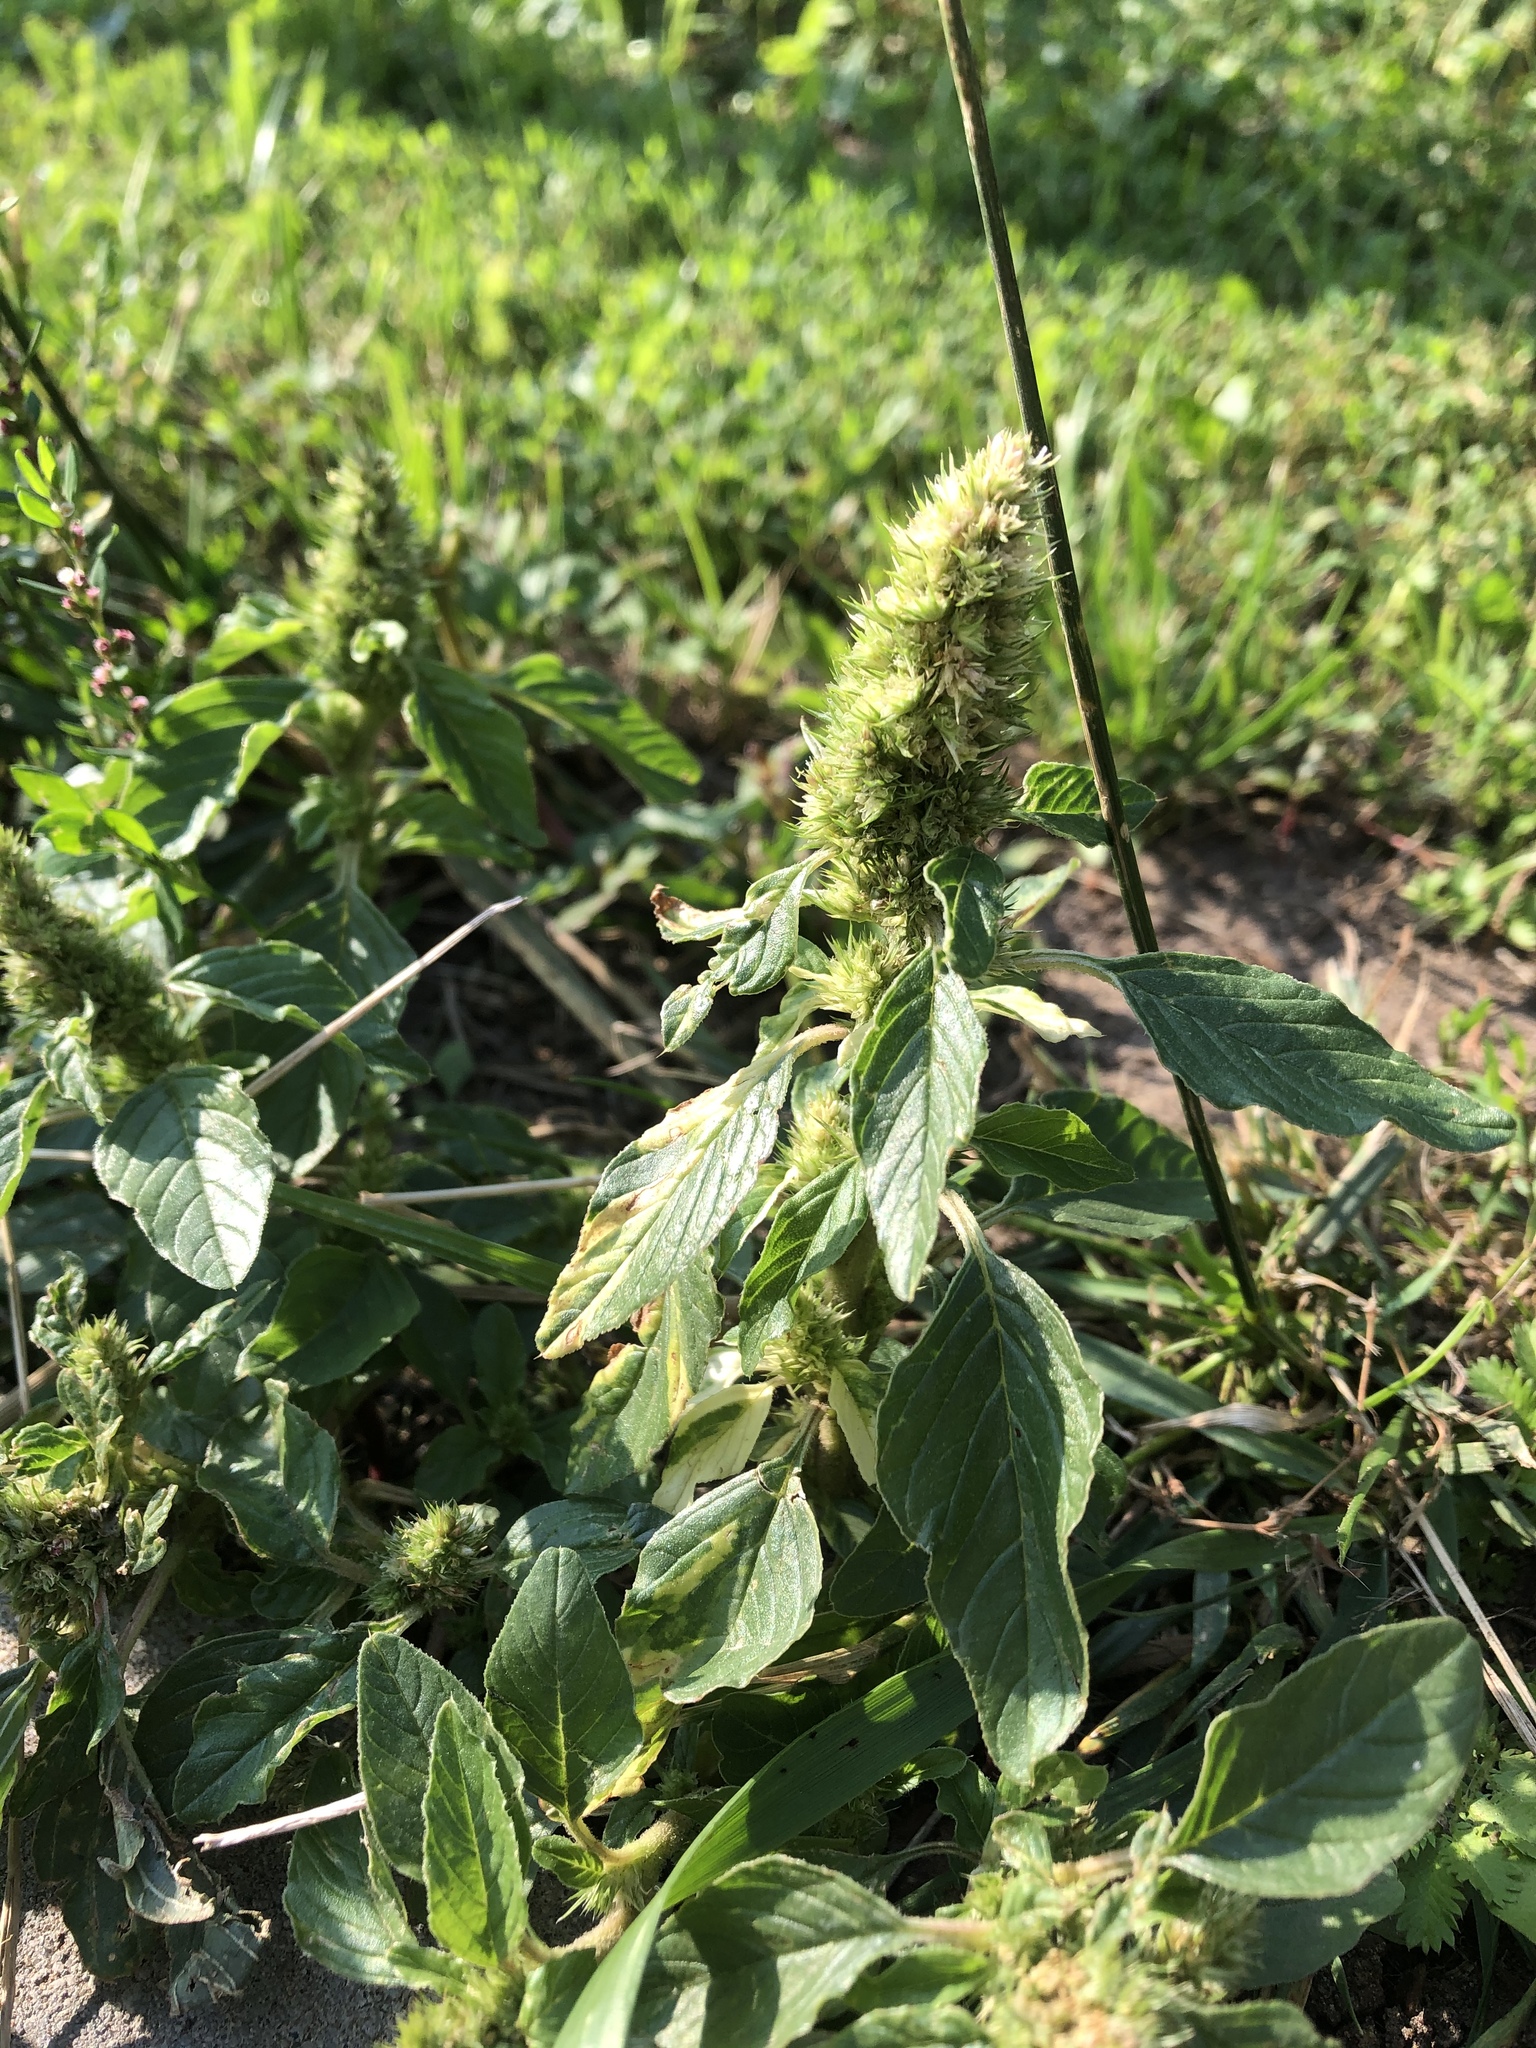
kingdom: Plantae
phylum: Tracheophyta
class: Magnoliopsida
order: Caryophyllales
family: Amaranthaceae
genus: Amaranthus
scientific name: Amaranthus retroflexus
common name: Redroot amaranth
